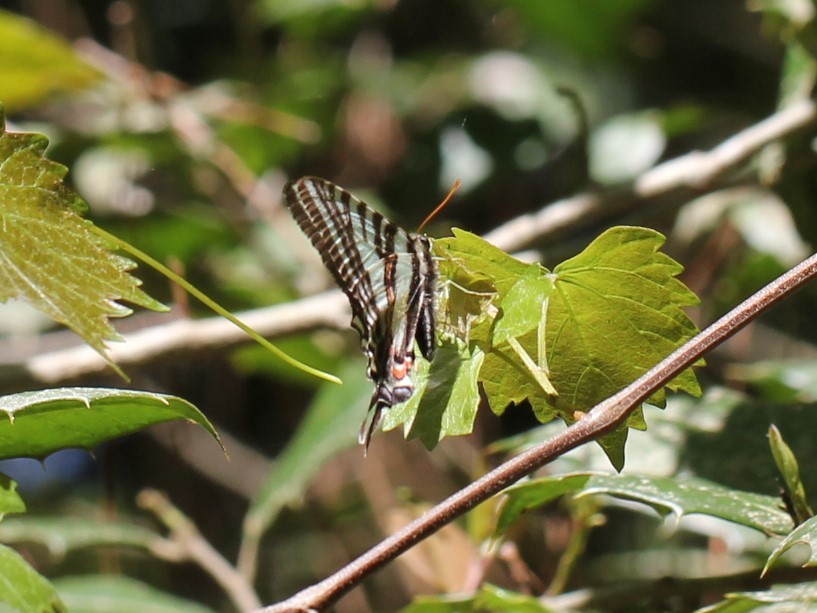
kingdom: Animalia
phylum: Arthropoda
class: Insecta
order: Lepidoptera
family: Papilionidae
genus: Protographium
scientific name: Protographium marcellus
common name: Zebra swallowtail
